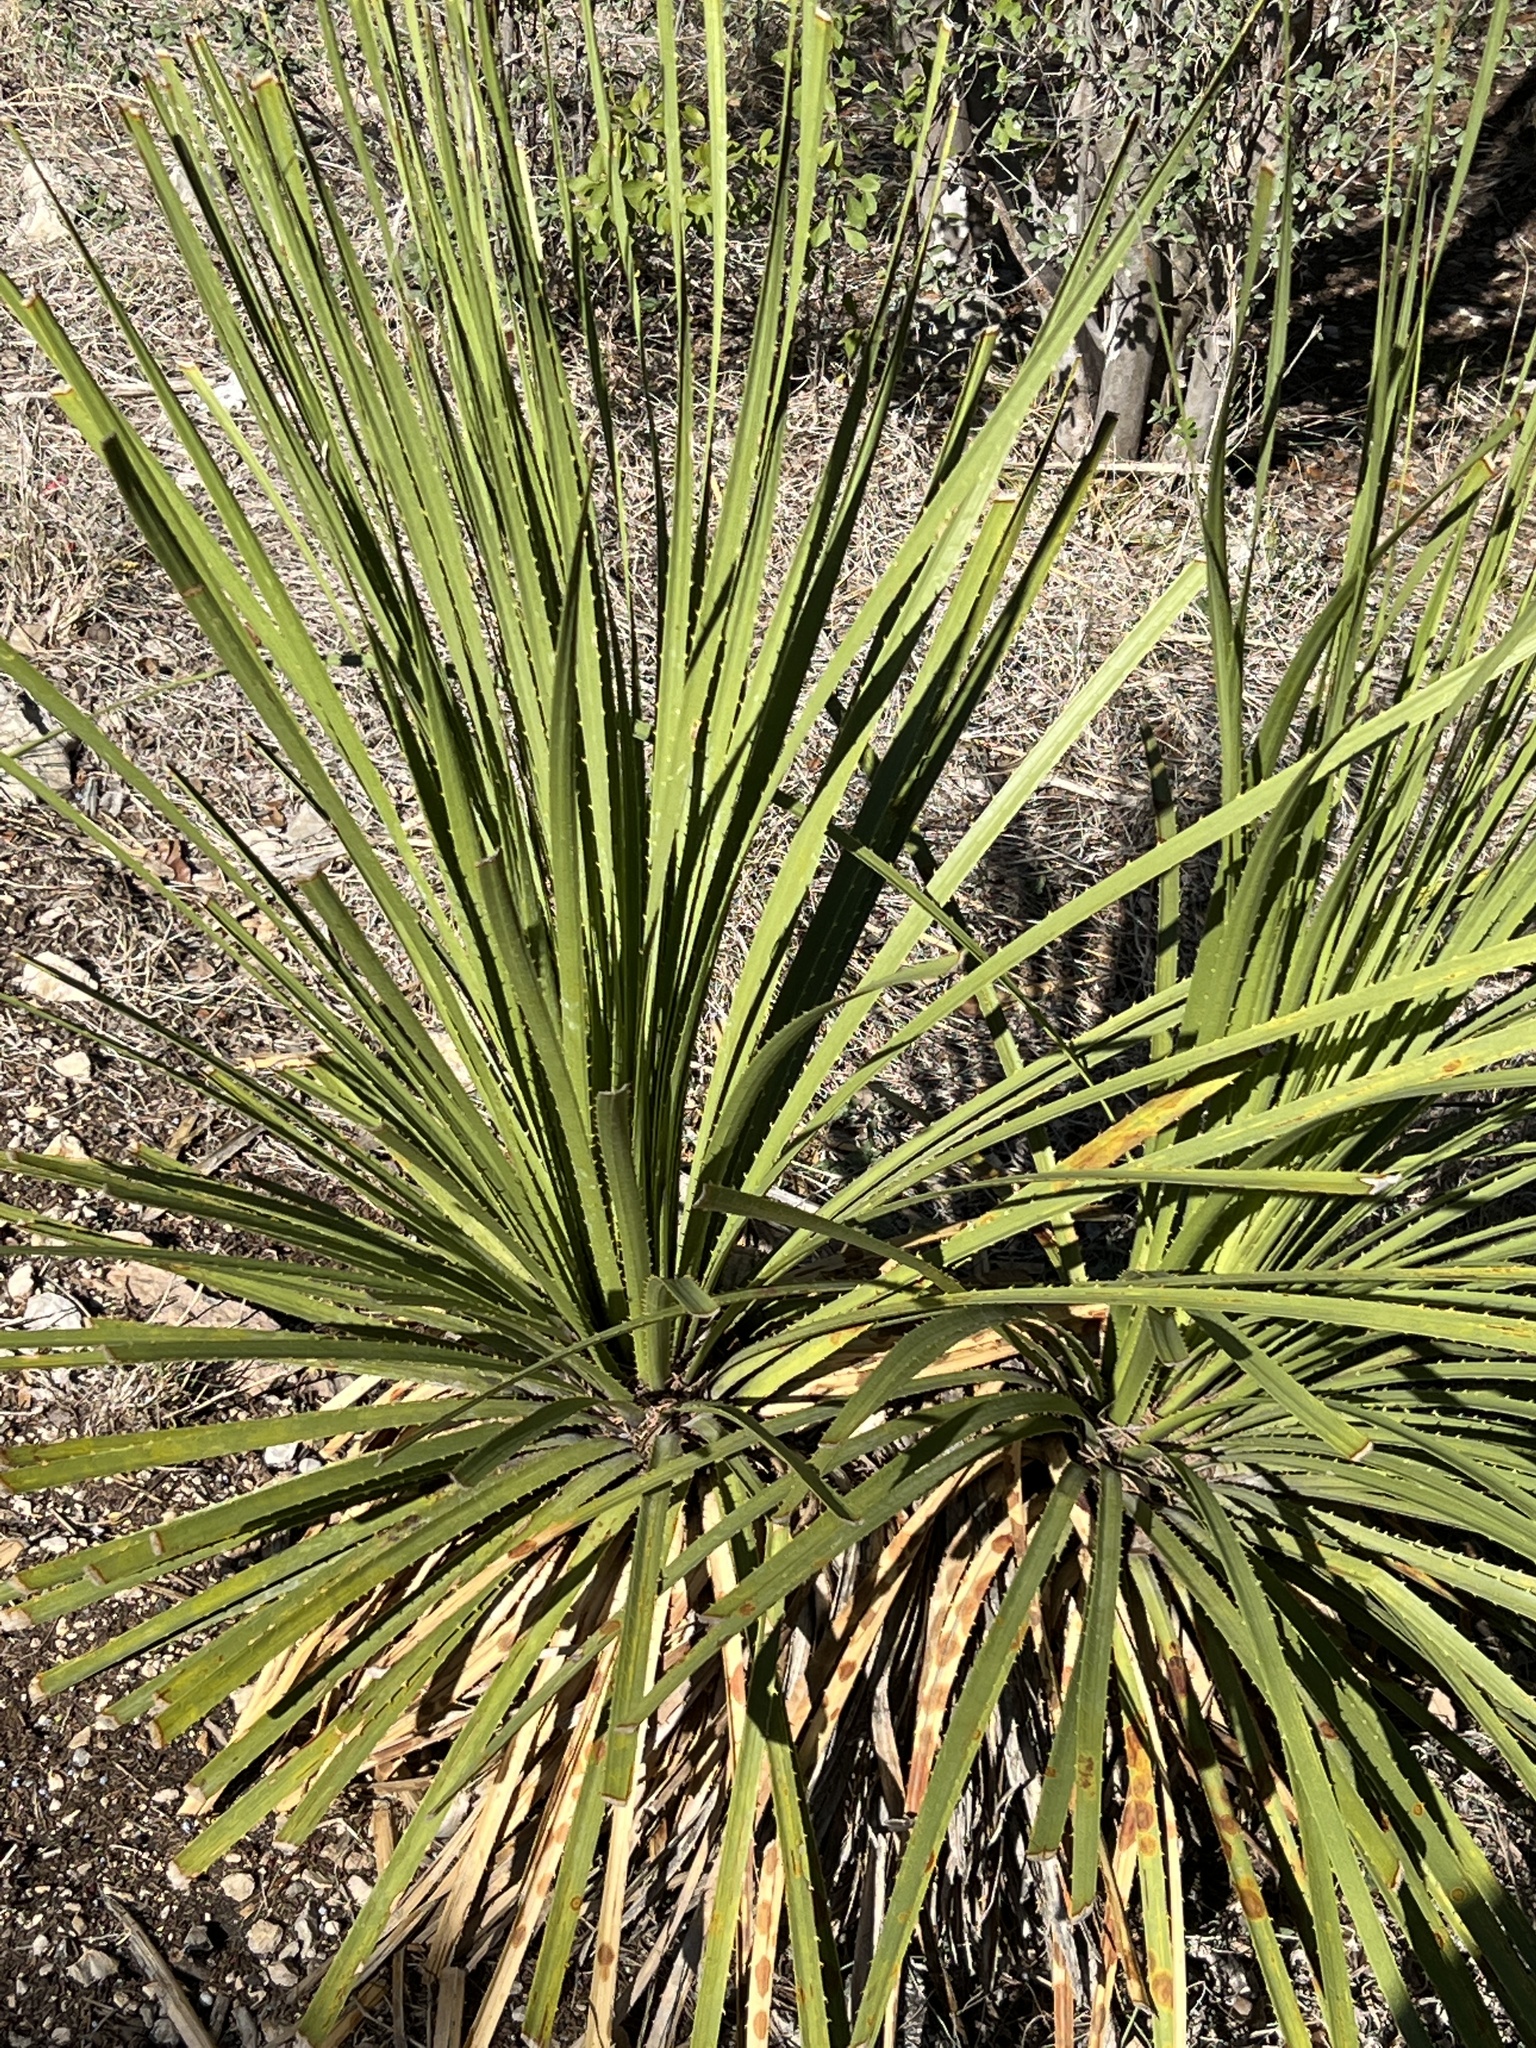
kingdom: Plantae
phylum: Tracheophyta
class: Liliopsida
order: Asparagales
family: Asparagaceae
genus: Dasylirion
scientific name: Dasylirion texanum
